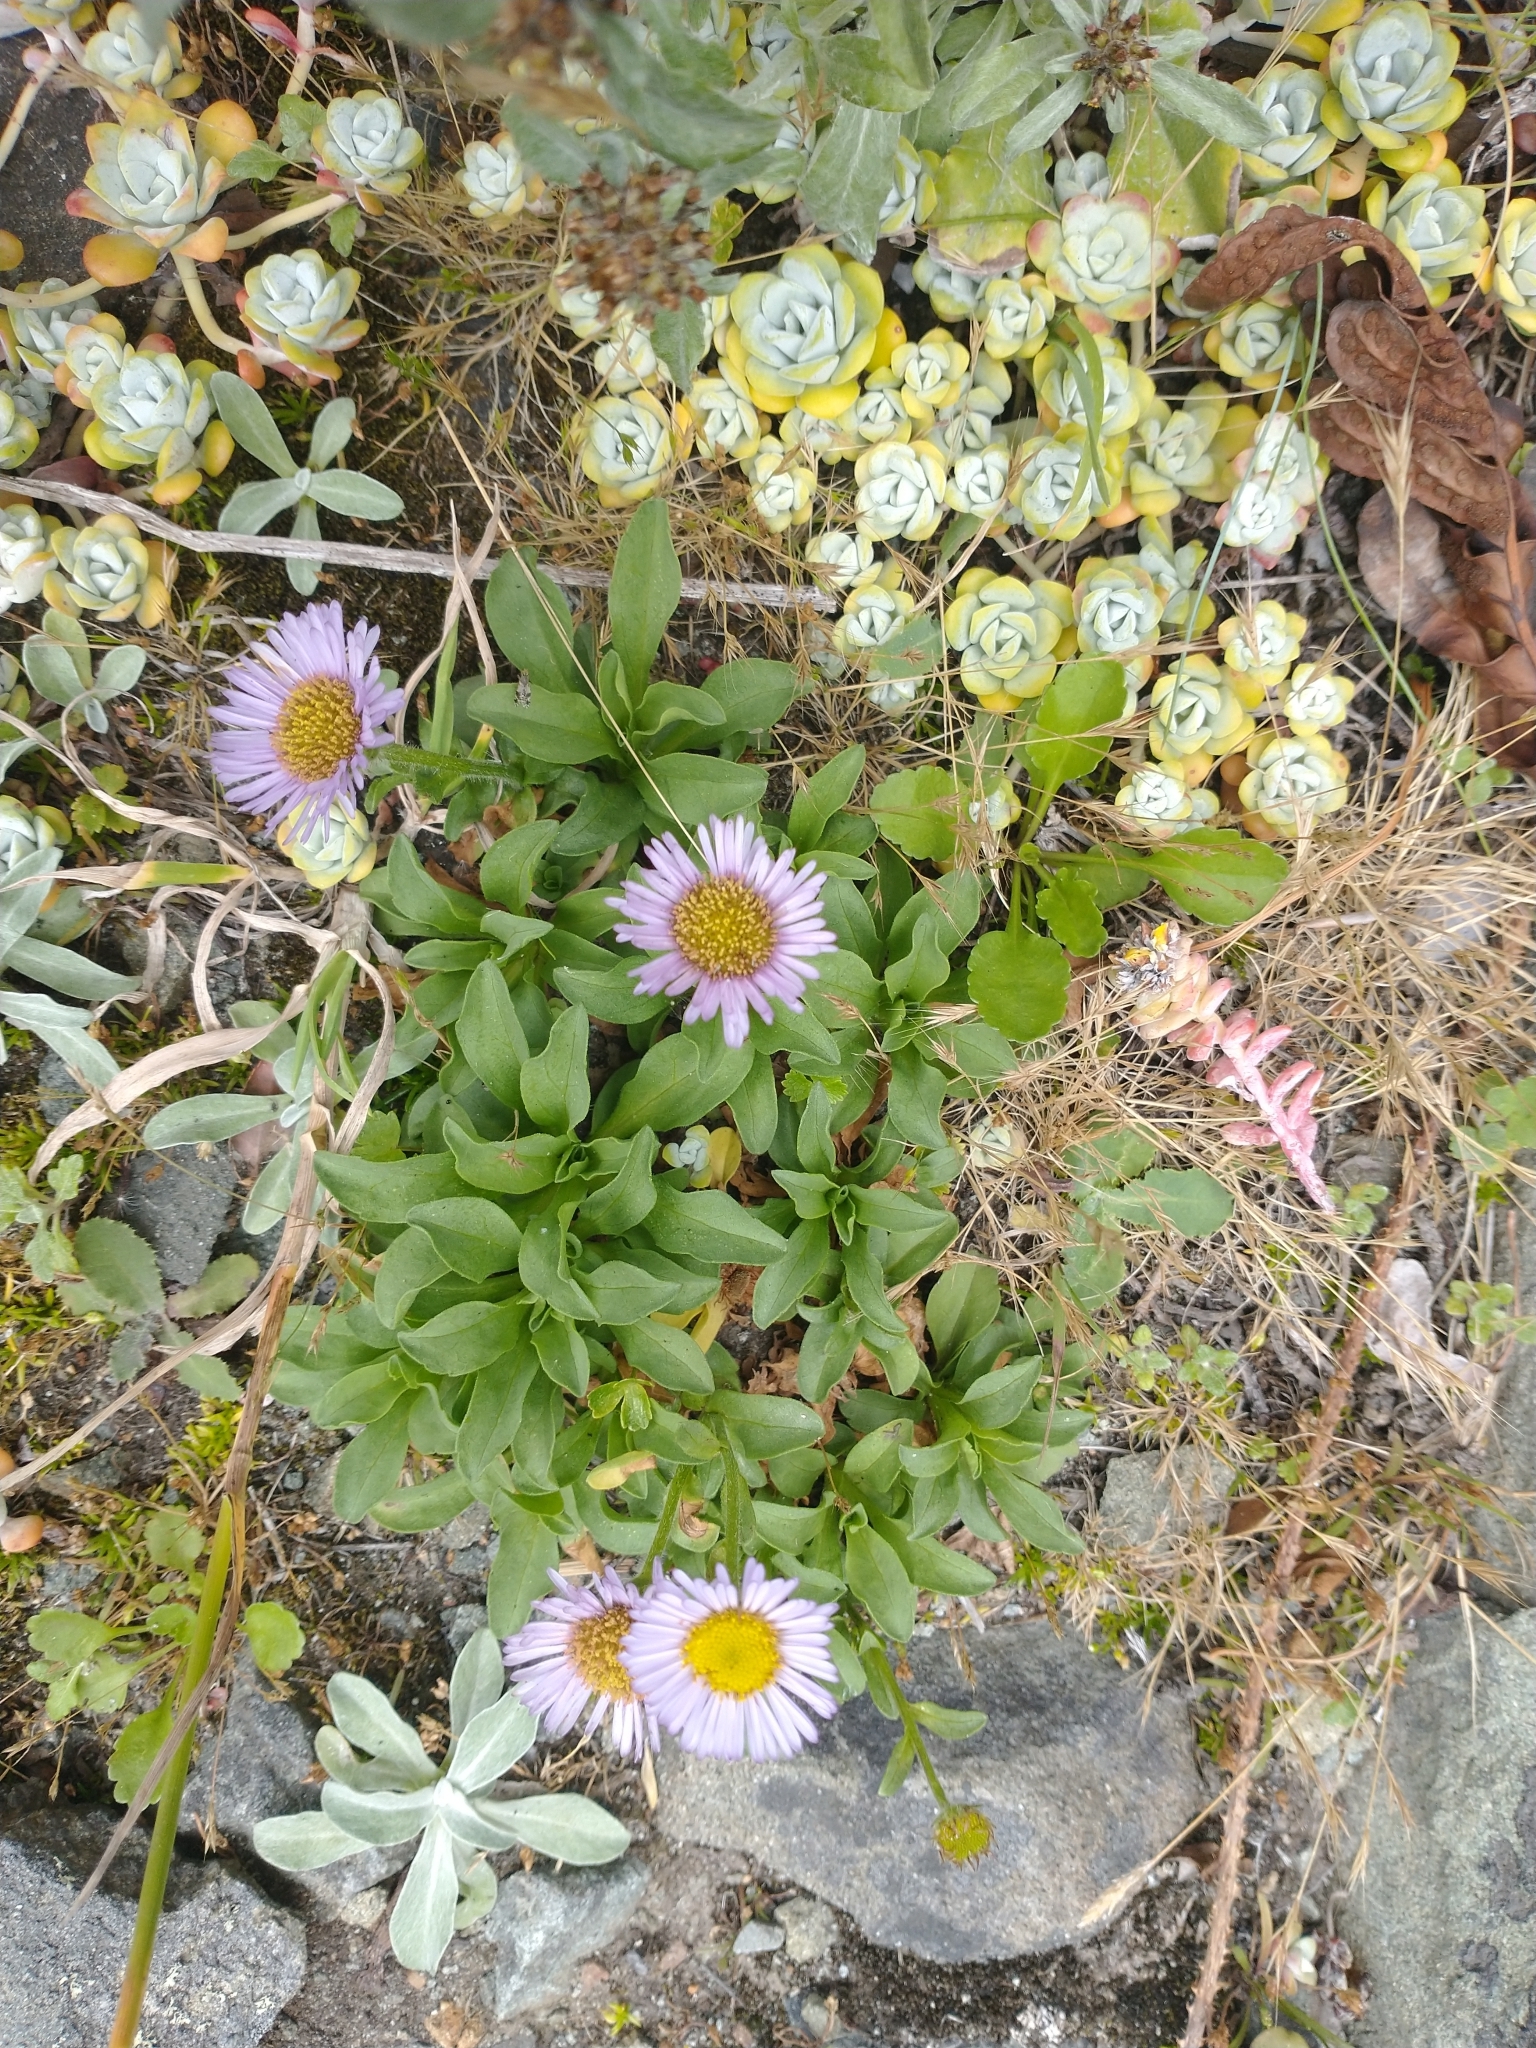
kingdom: Plantae
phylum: Tracheophyta
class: Magnoliopsida
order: Asterales
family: Asteraceae
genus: Erigeron
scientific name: Erigeron glaucus
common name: Seaside daisy
